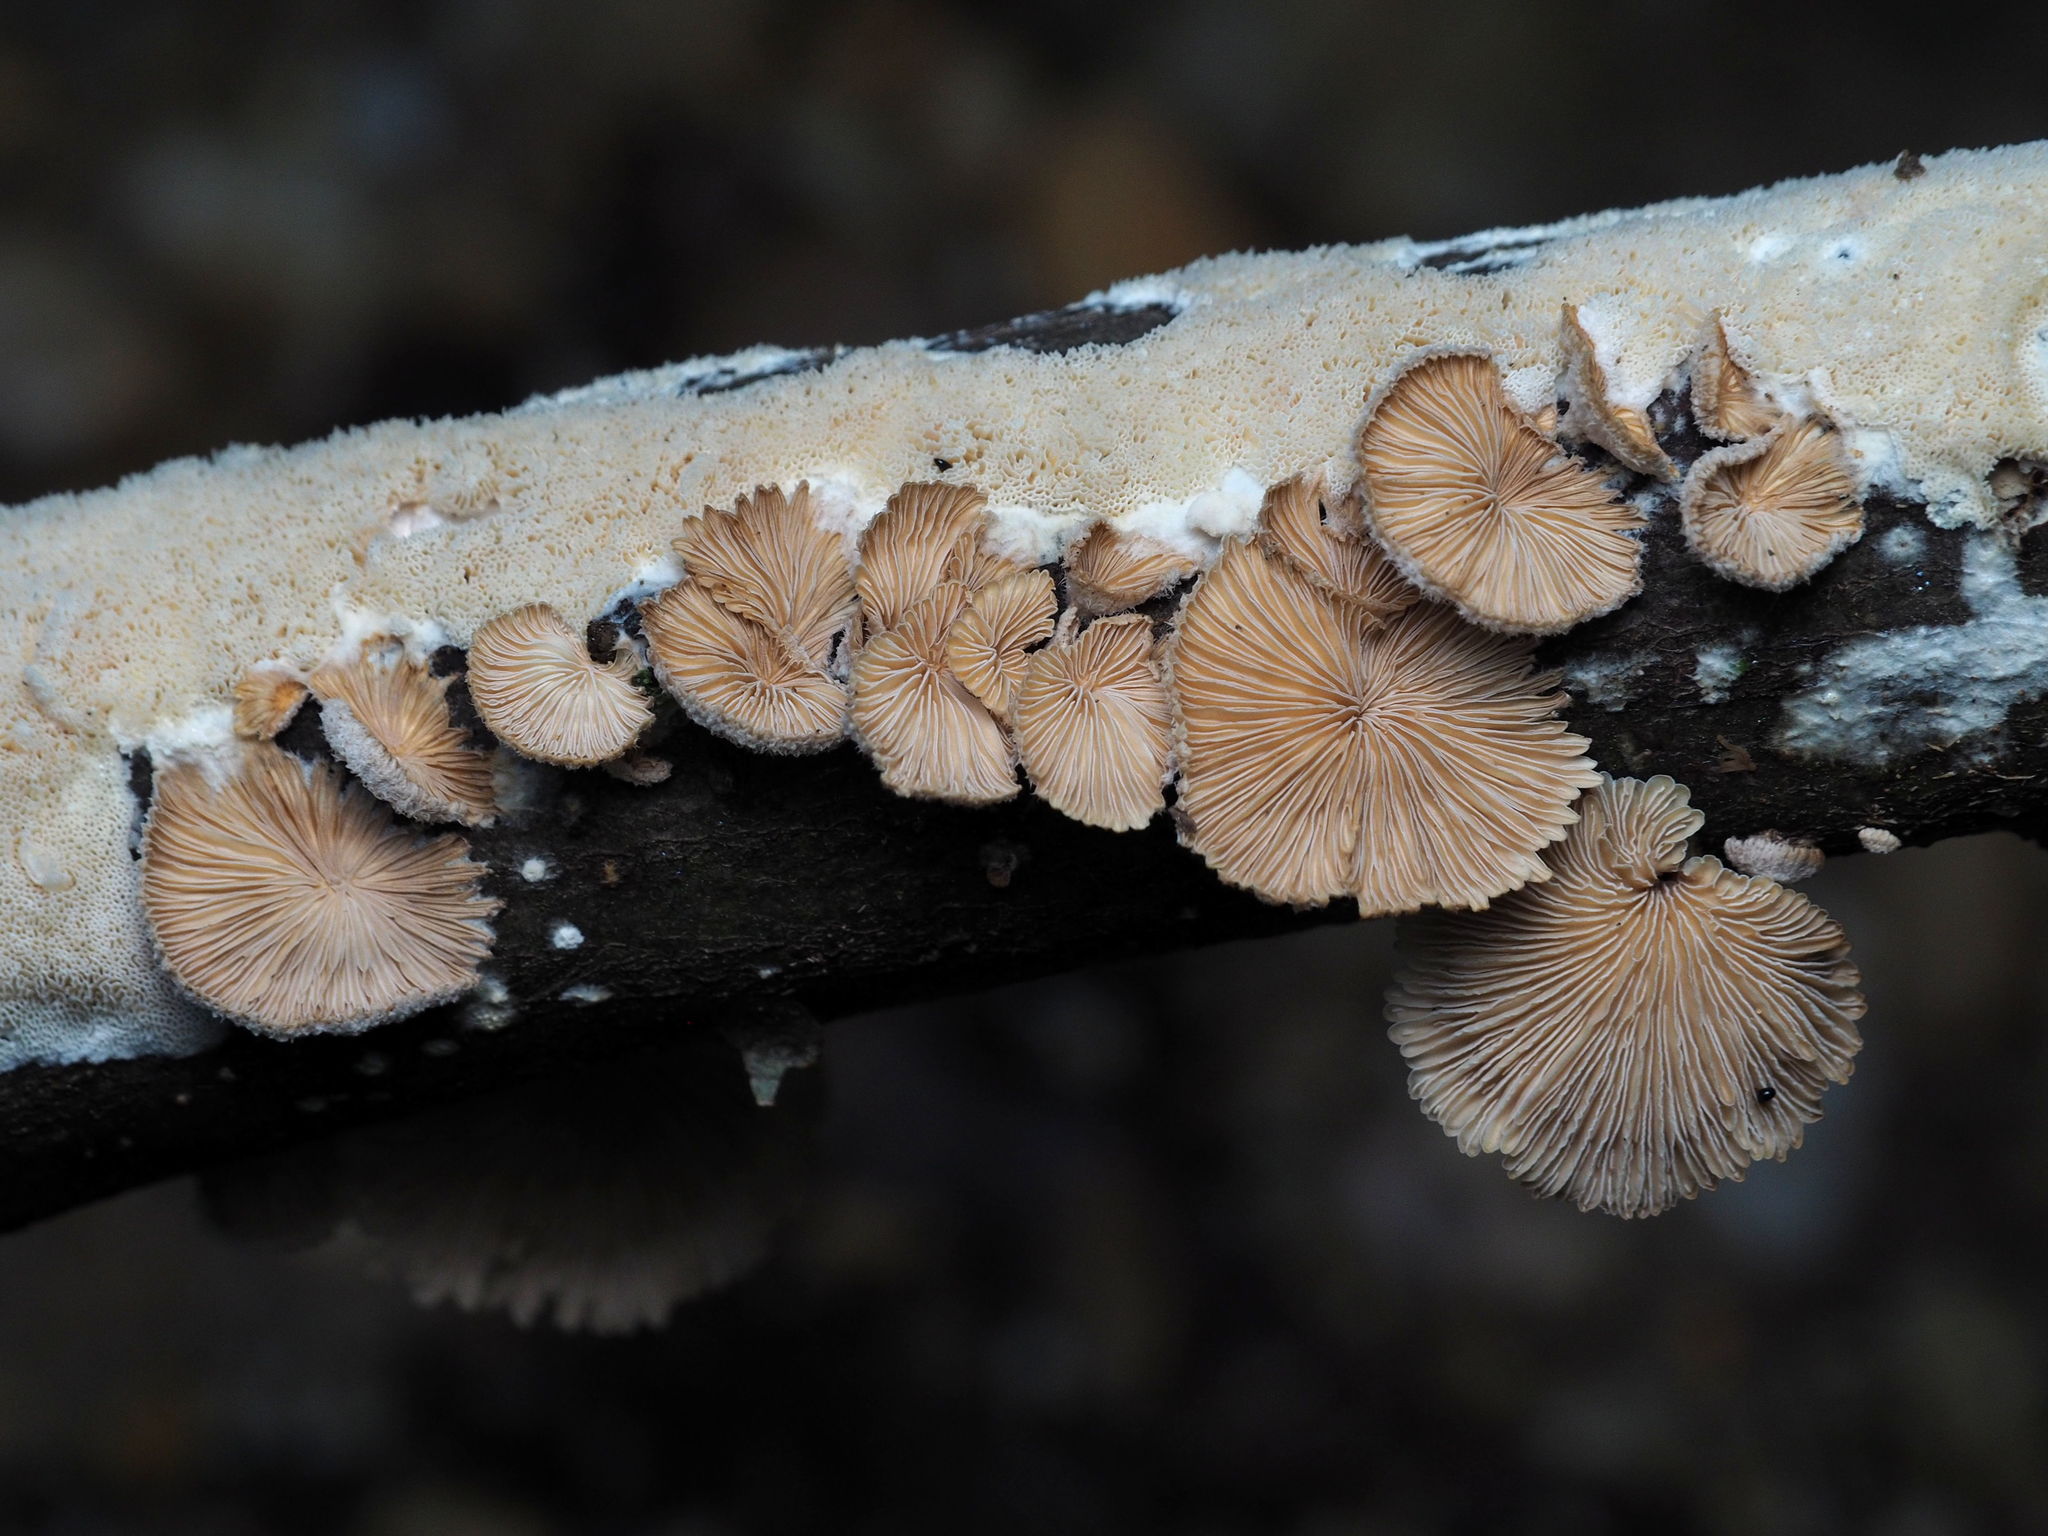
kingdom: Fungi
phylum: Basidiomycota
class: Agaricomycetes
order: Agaricales
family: Schizophyllaceae
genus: Schizophyllum
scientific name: Schizophyllum commune
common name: Common porecrust
